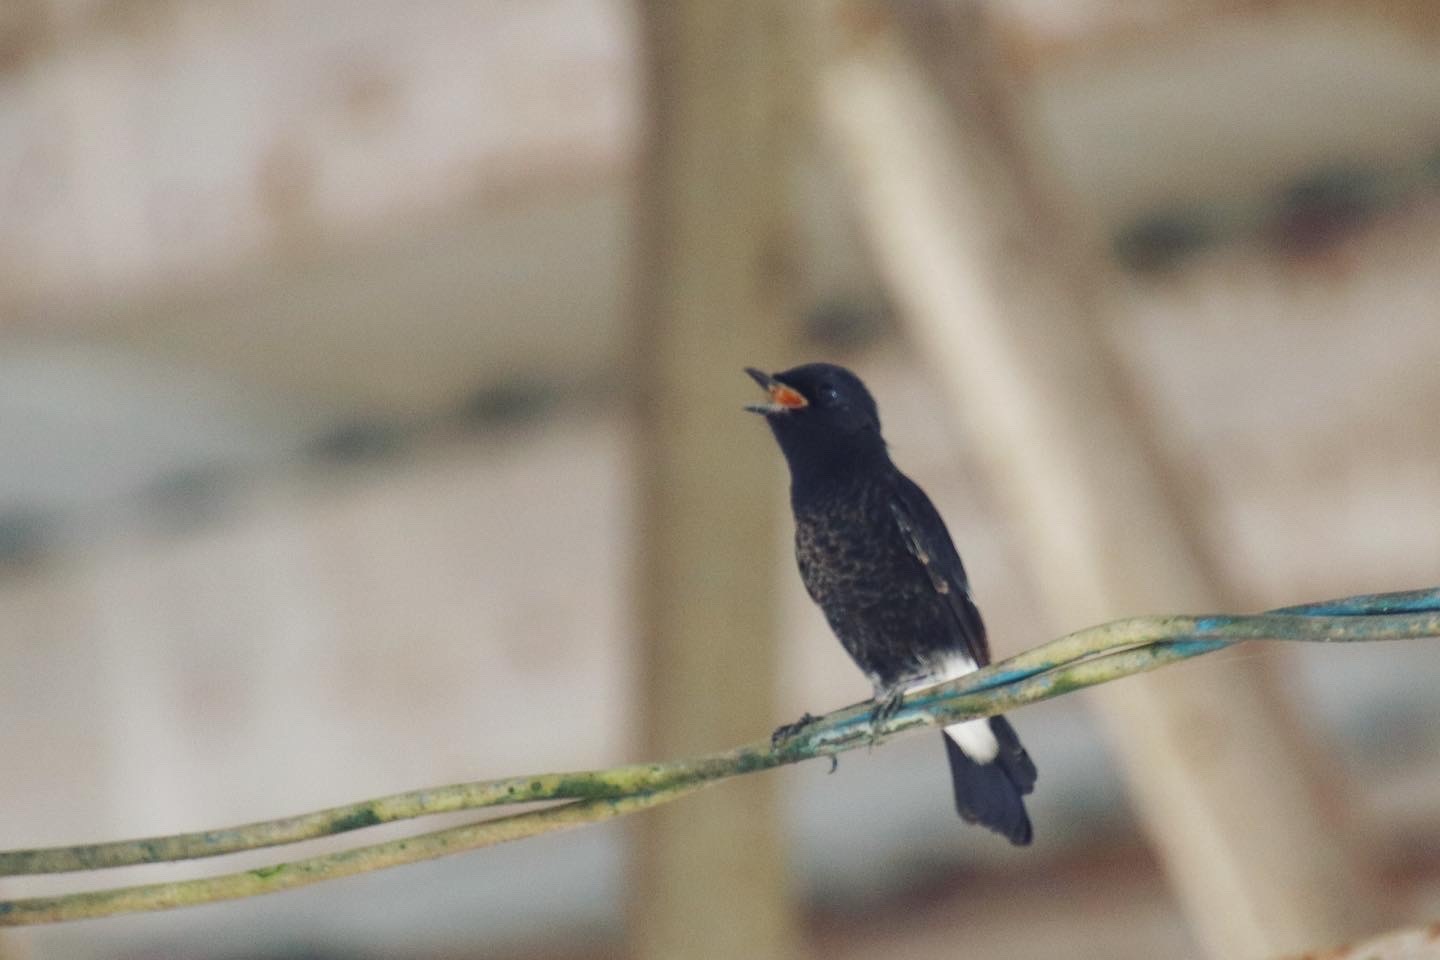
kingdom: Animalia
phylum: Chordata
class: Aves
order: Passeriformes
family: Muscicapidae
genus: Saxicola
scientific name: Saxicola caprata
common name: Pied bush chat
